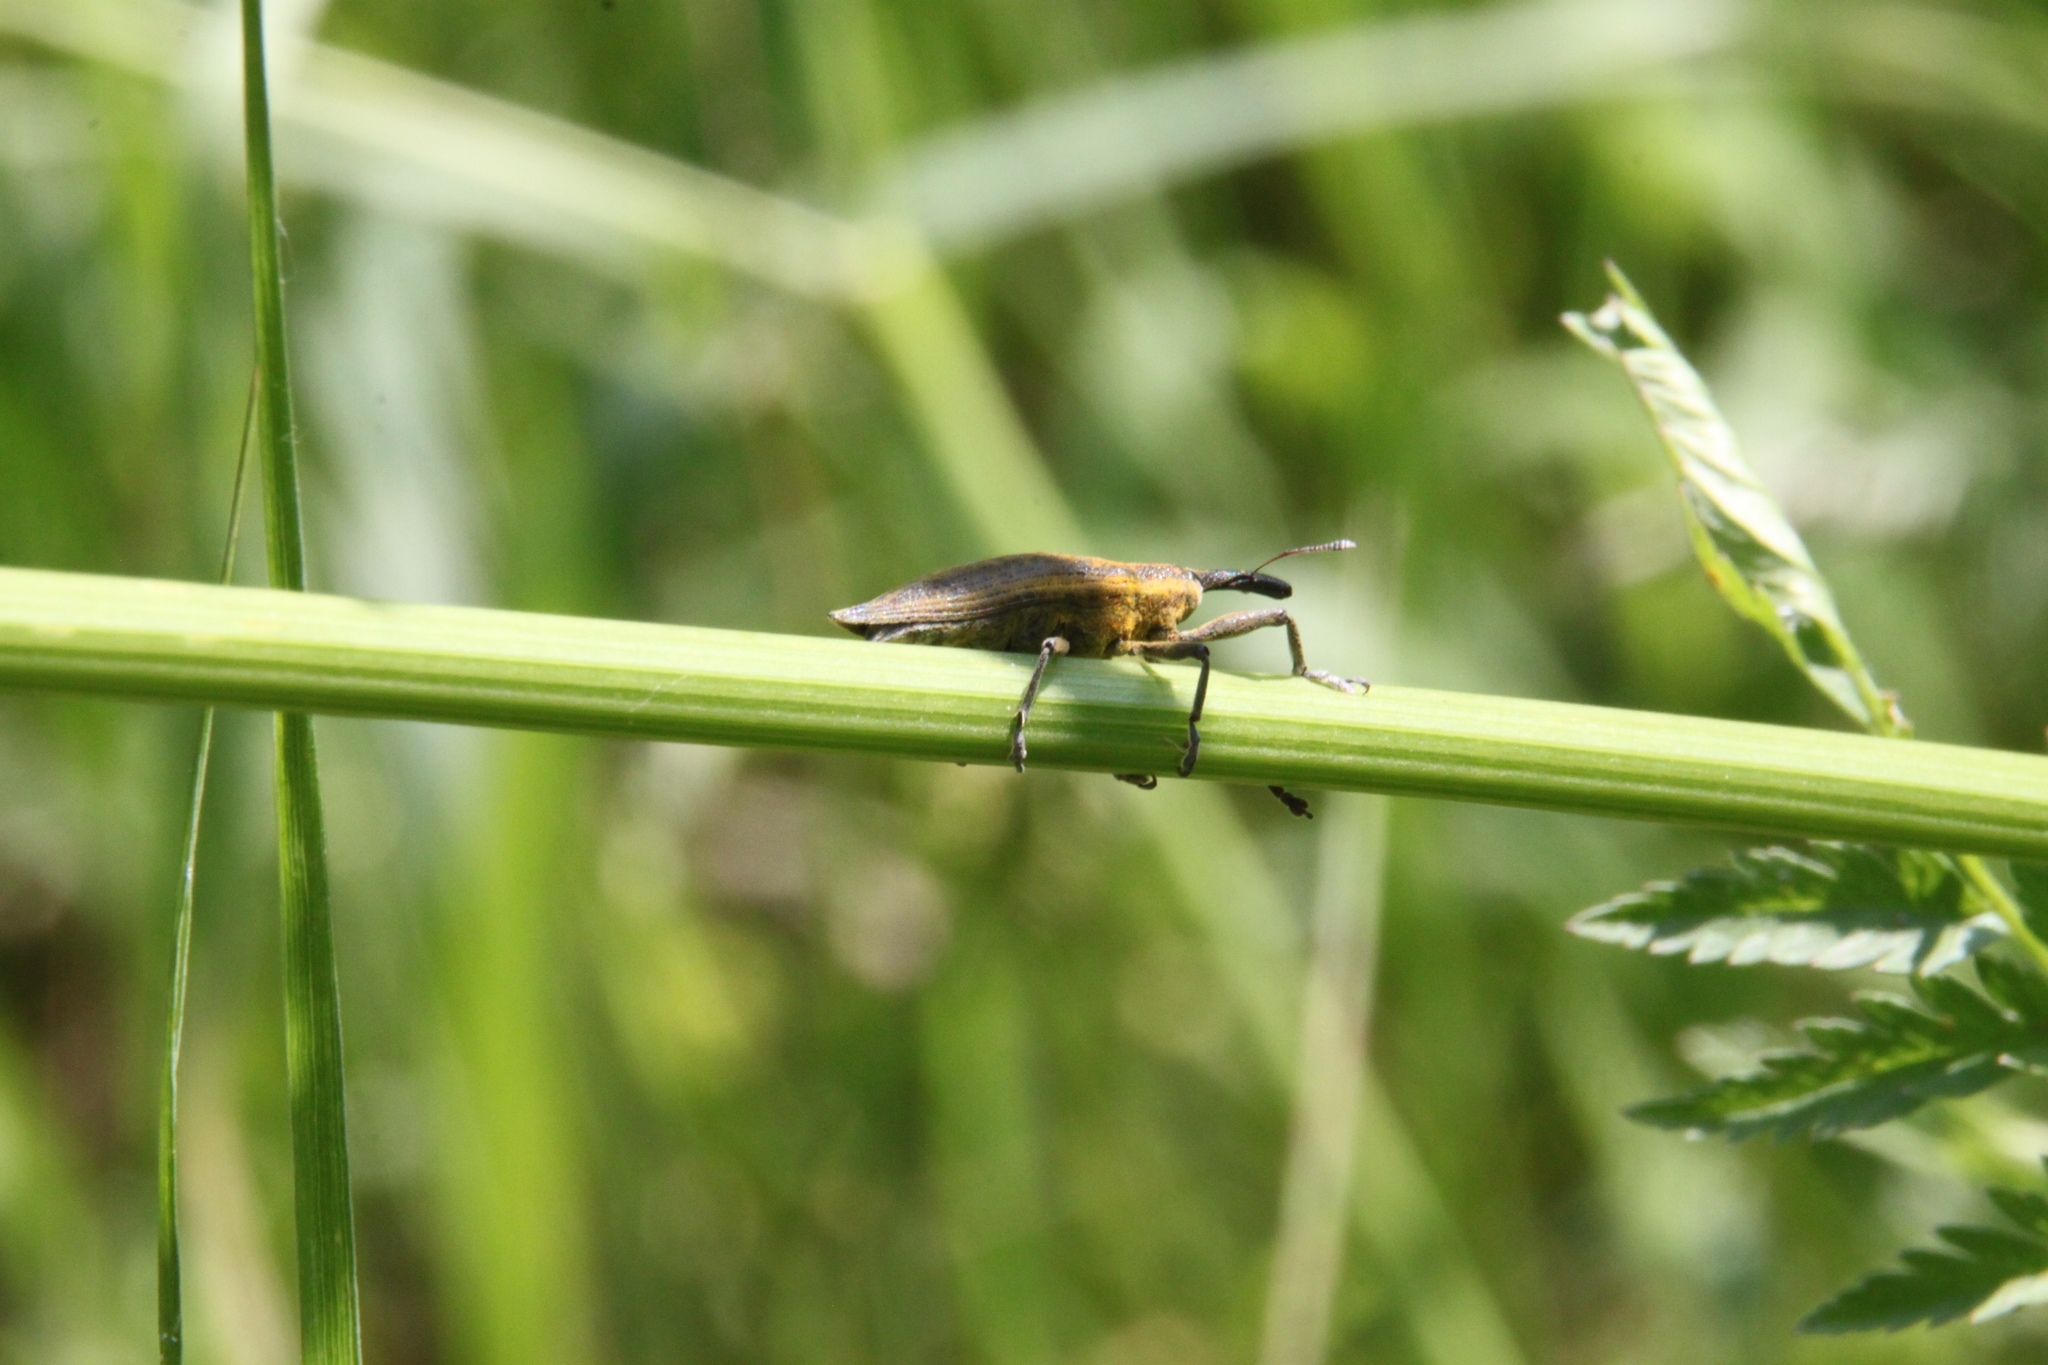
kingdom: Animalia
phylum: Arthropoda
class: Insecta
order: Coleoptera
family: Curculionidae
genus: Lixus
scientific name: Lixus iridis
